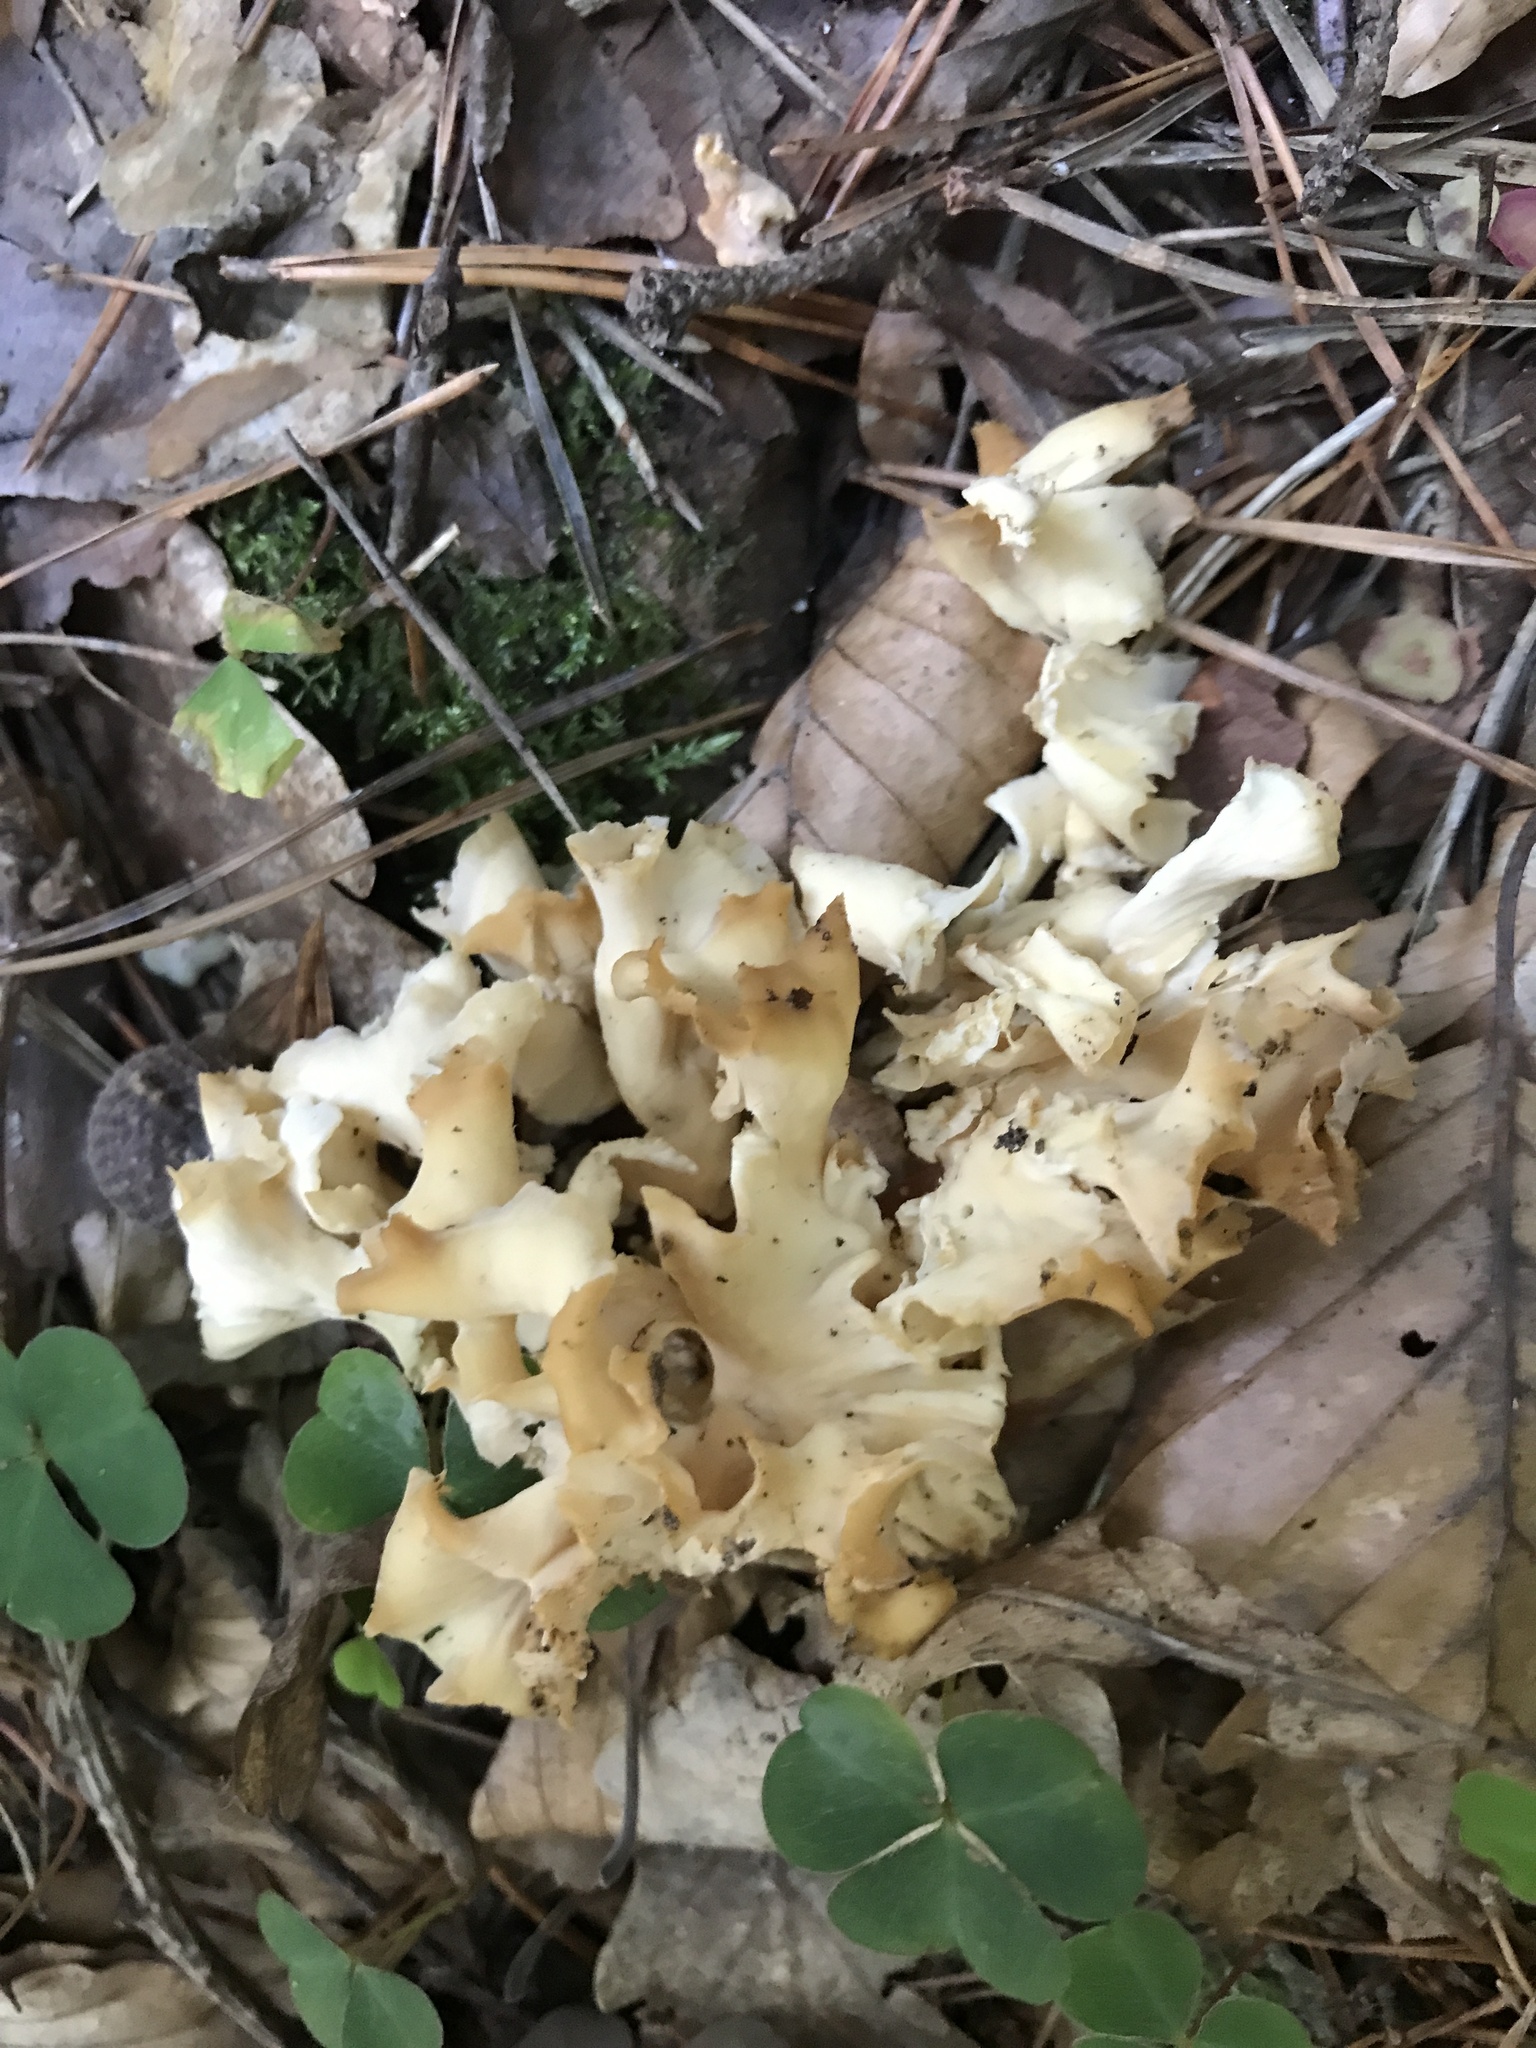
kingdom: Fungi
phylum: Basidiomycota
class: Agaricomycetes
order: Polyporales
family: Sparassidaceae
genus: Sparassis
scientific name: Sparassis crispa
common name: Brain fungus
